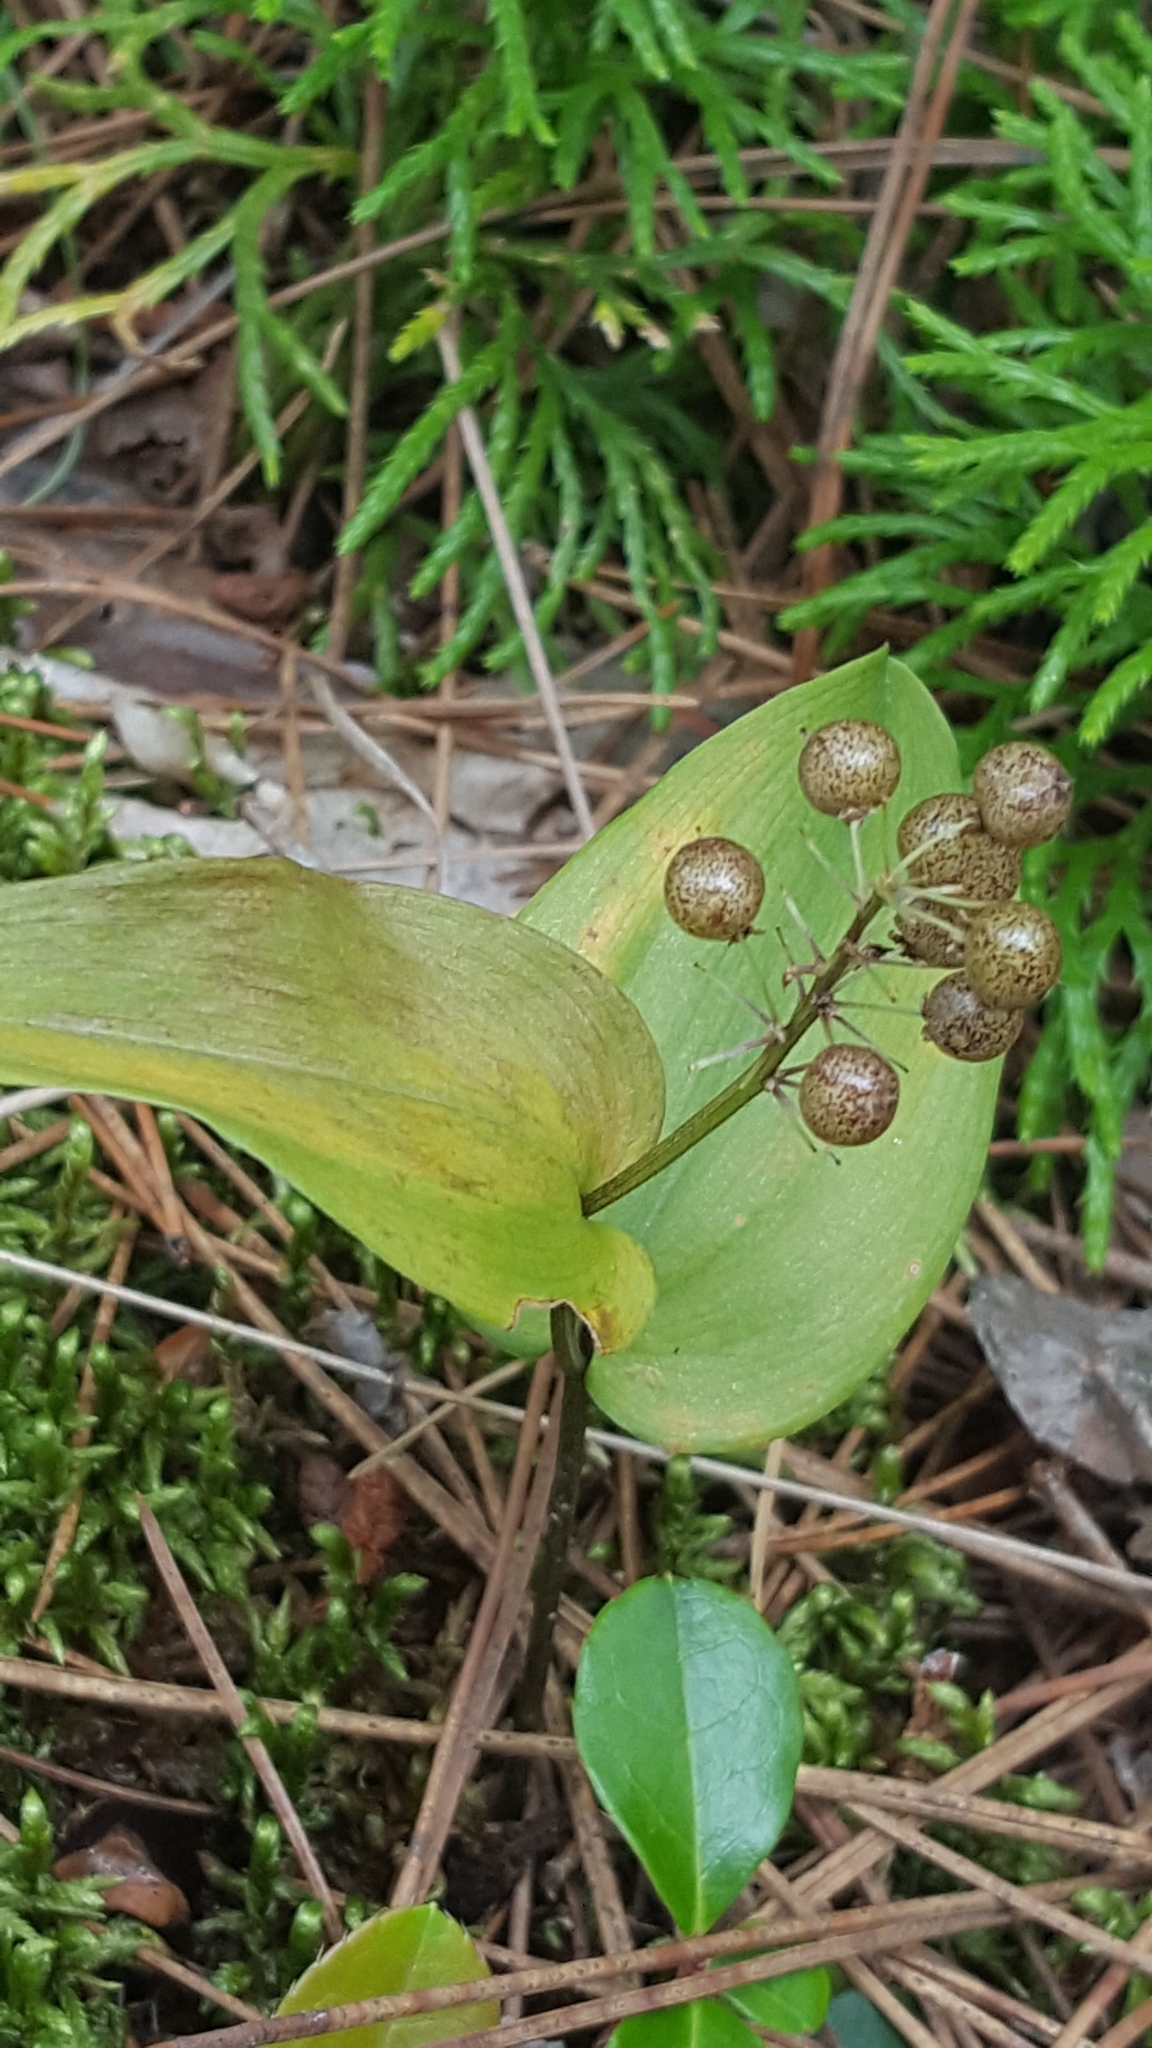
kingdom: Plantae
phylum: Tracheophyta
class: Liliopsida
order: Asparagales
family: Asparagaceae
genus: Maianthemum
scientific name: Maianthemum canadense
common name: False lily-of-the-valley
